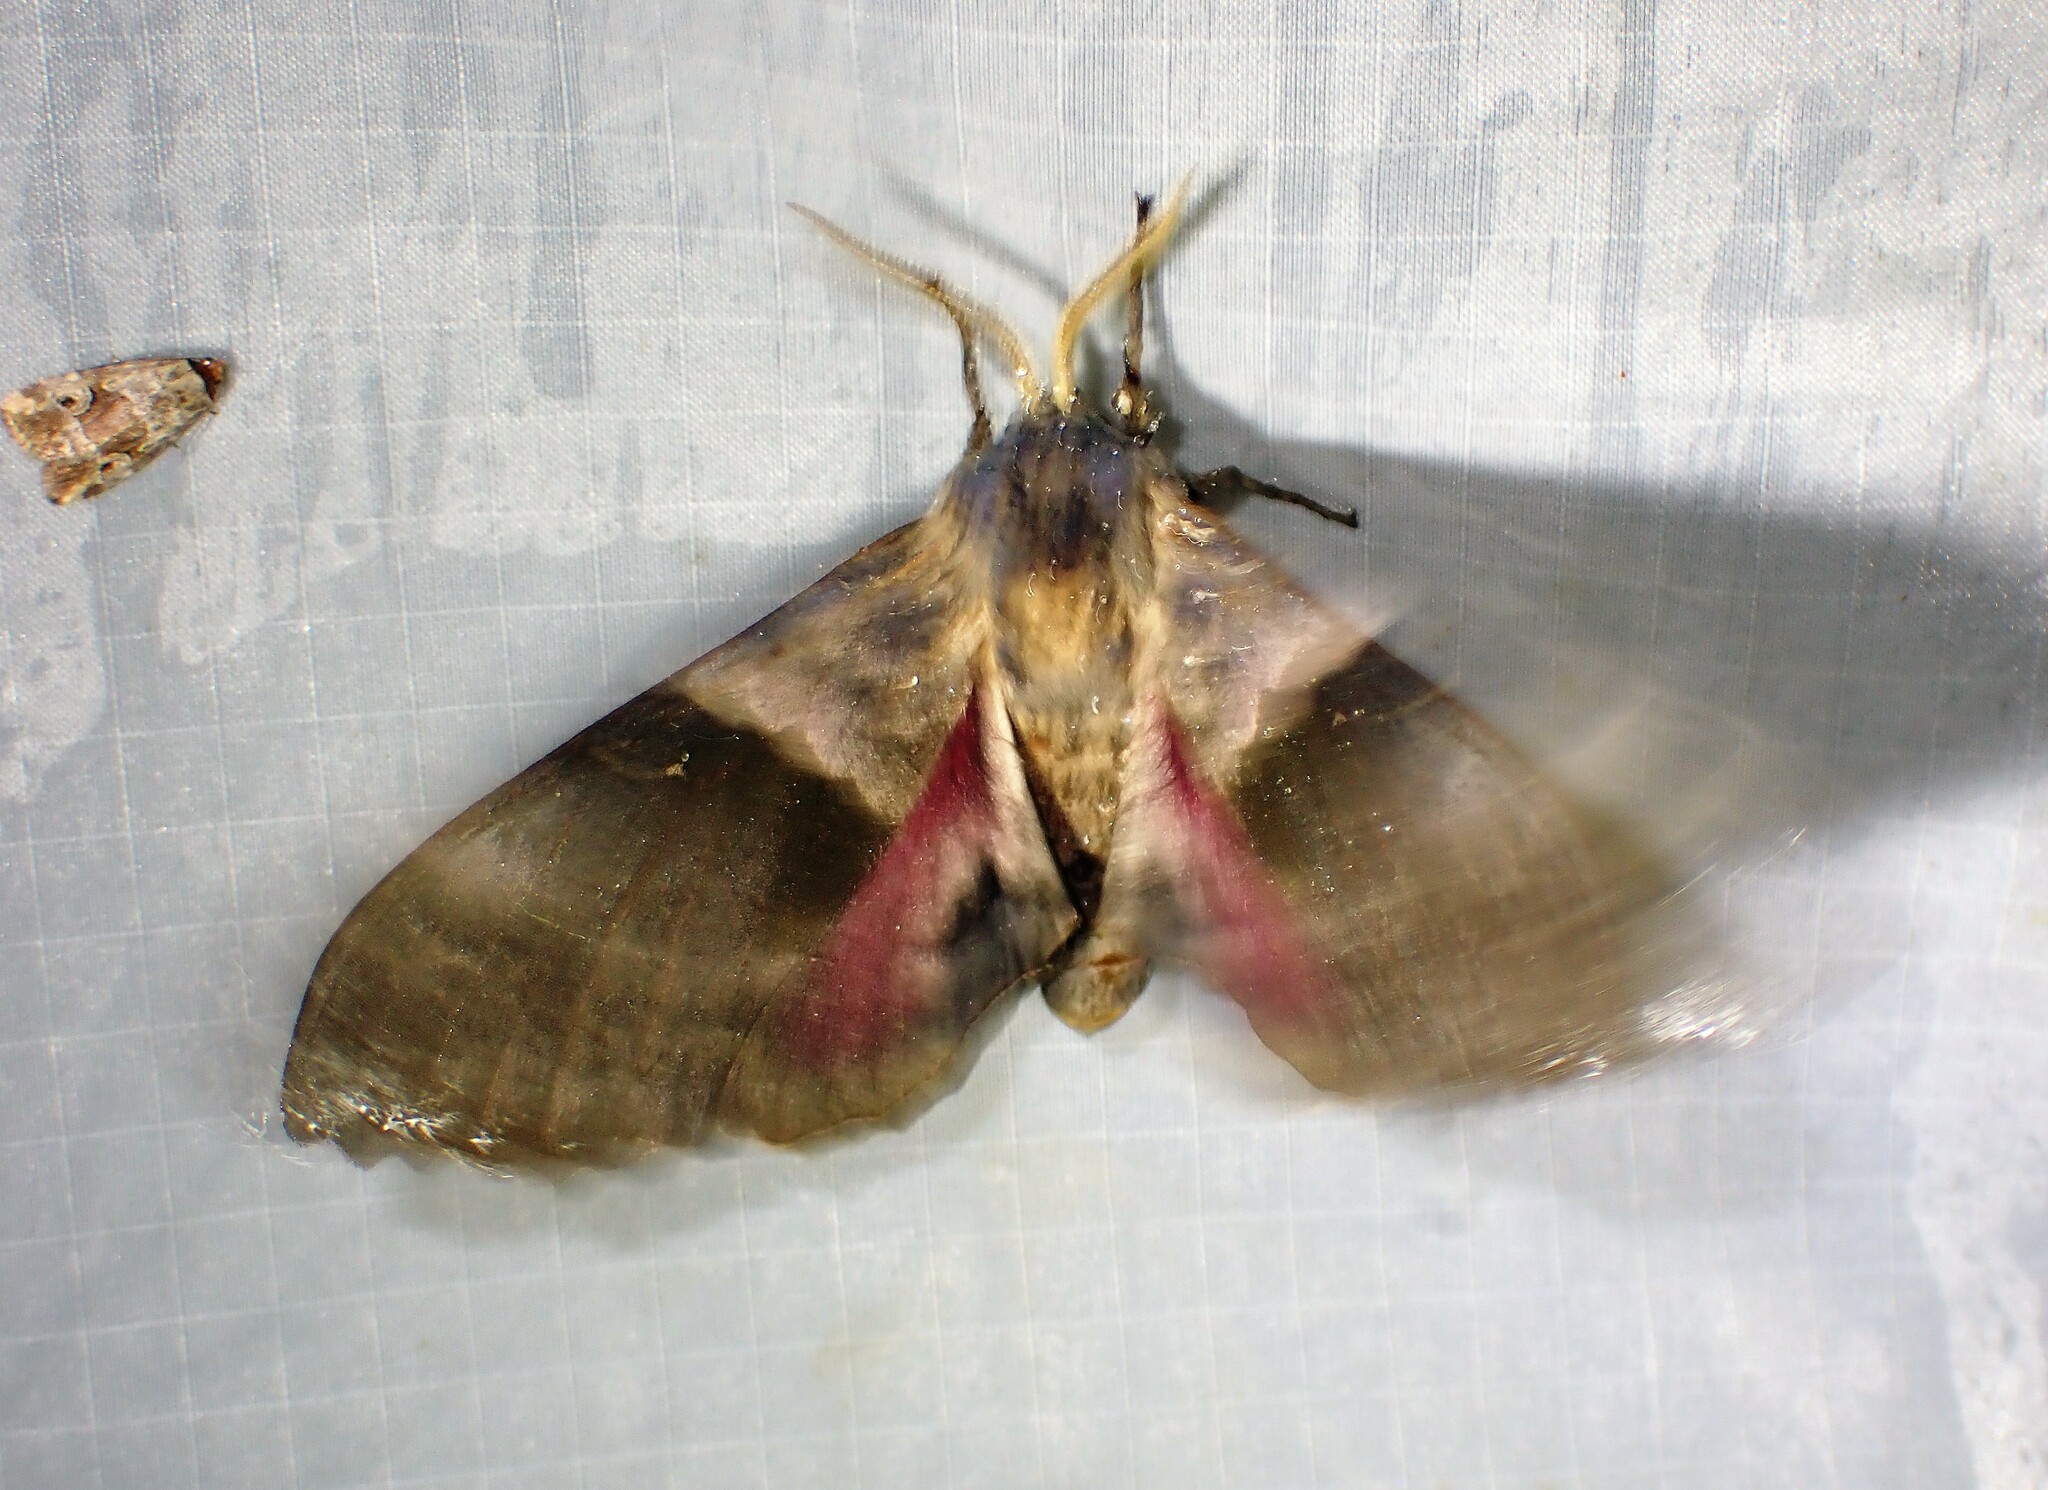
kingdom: Animalia
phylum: Arthropoda
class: Insecta
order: Lepidoptera
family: Sphingidae
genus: Pachysphinx
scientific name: Pachysphinx modesta
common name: Big poplar sphinx
